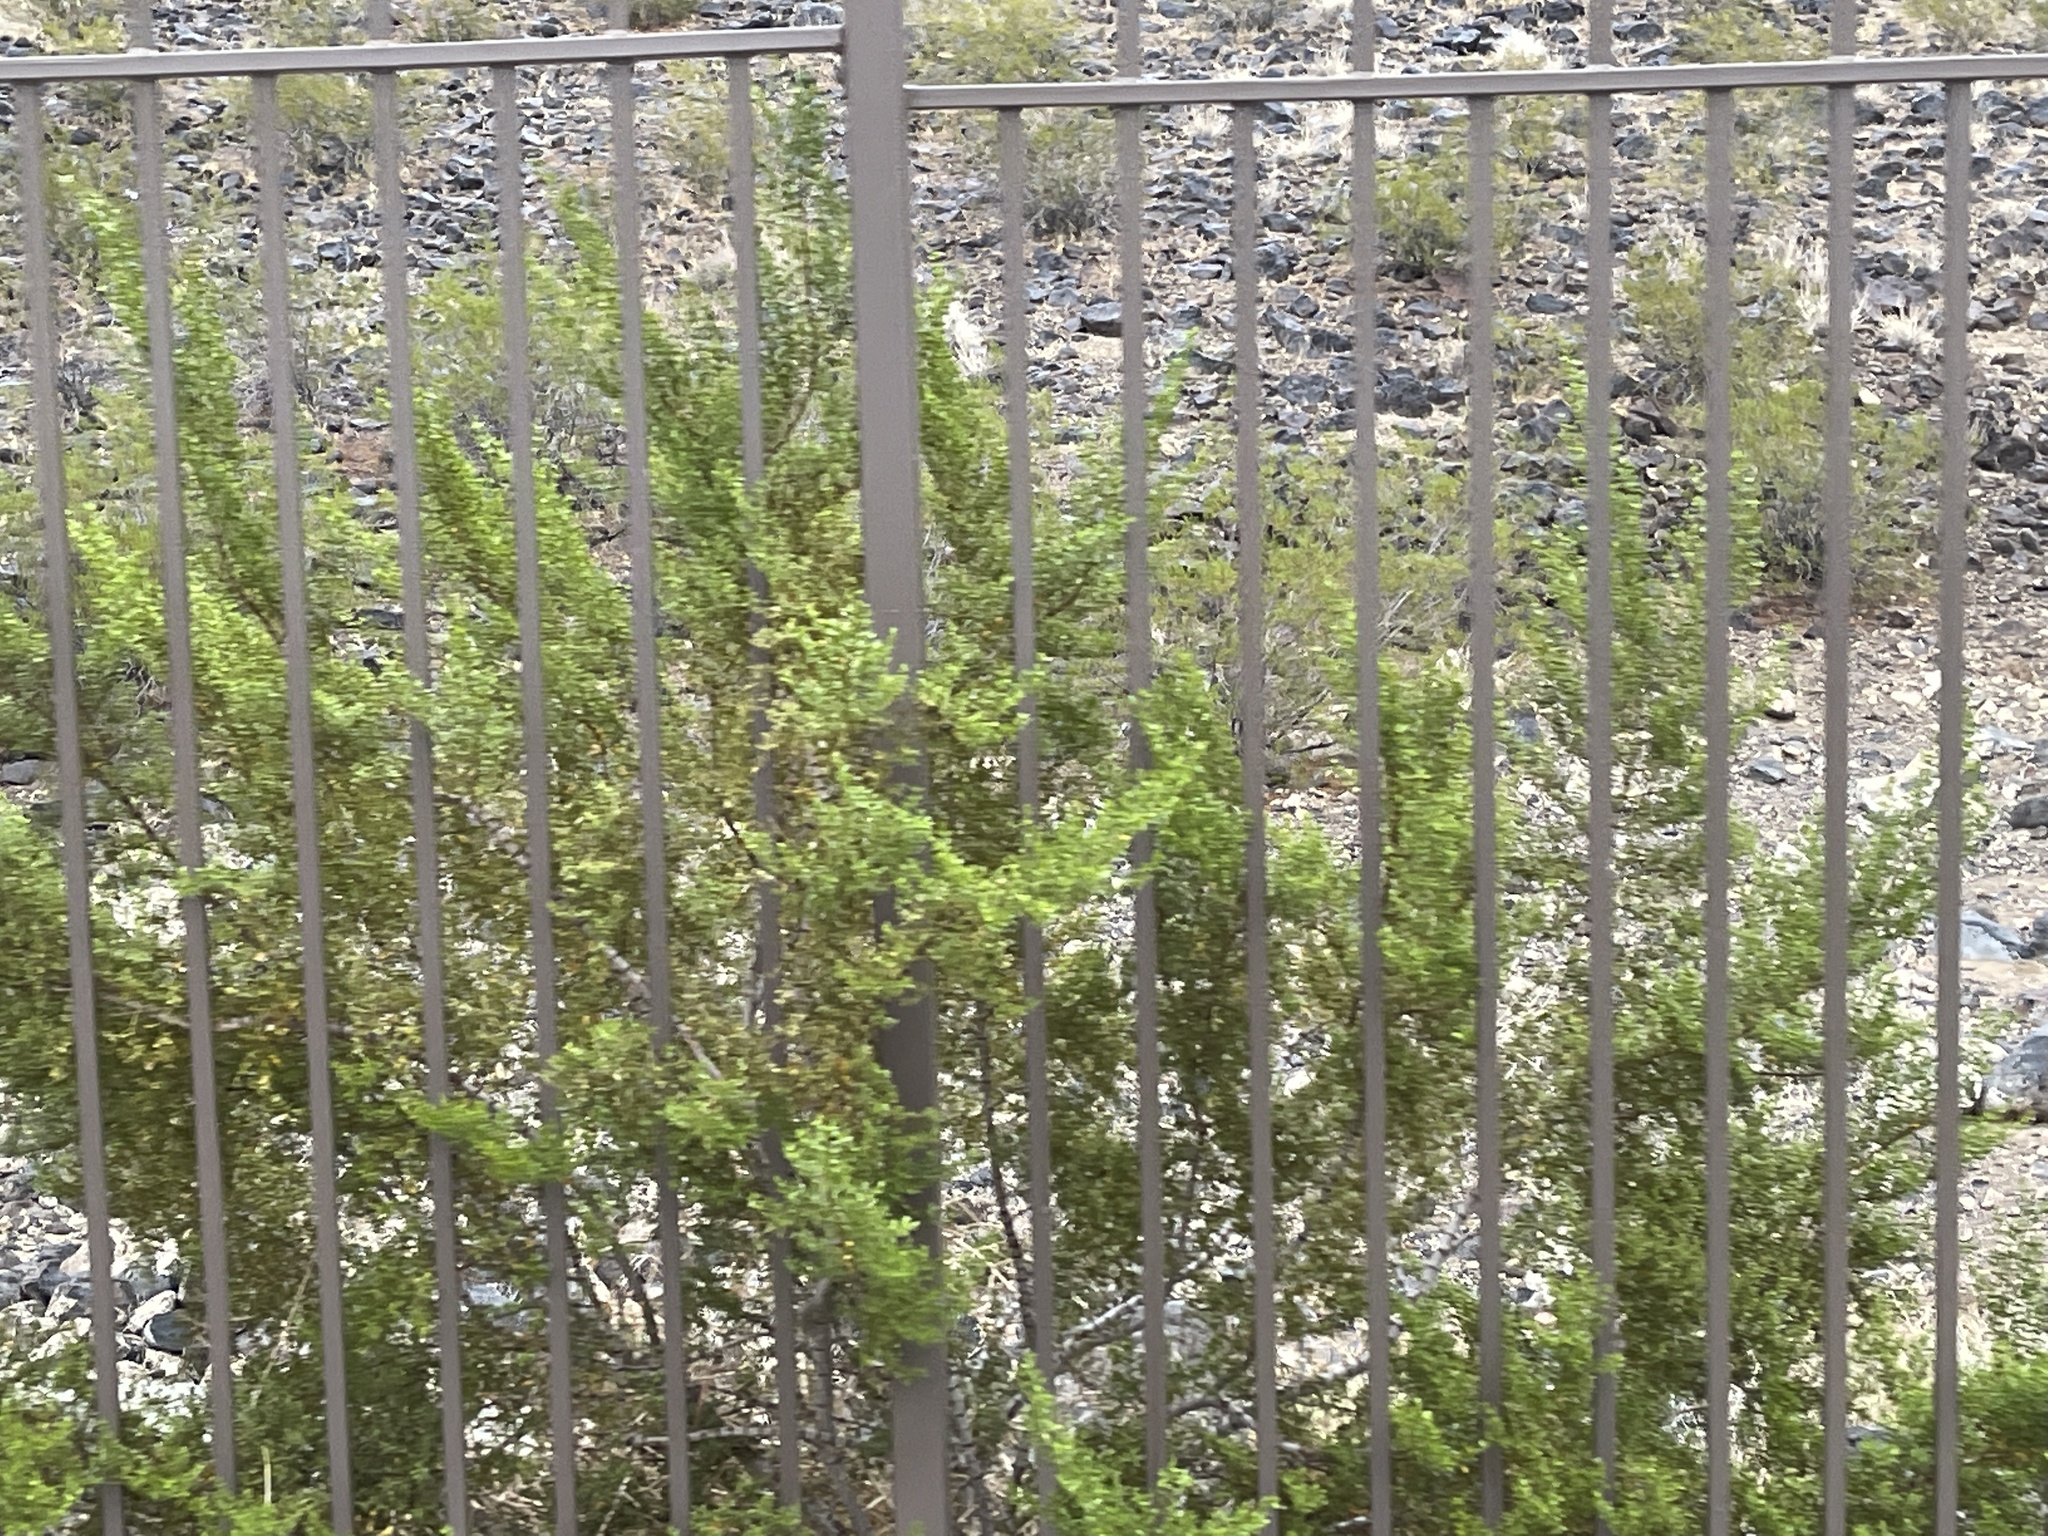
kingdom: Plantae
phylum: Tracheophyta
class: Magnoliopsida
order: Zygophyllales
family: Zygophyllaceae
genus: Larrea
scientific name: Larrea tridentata
